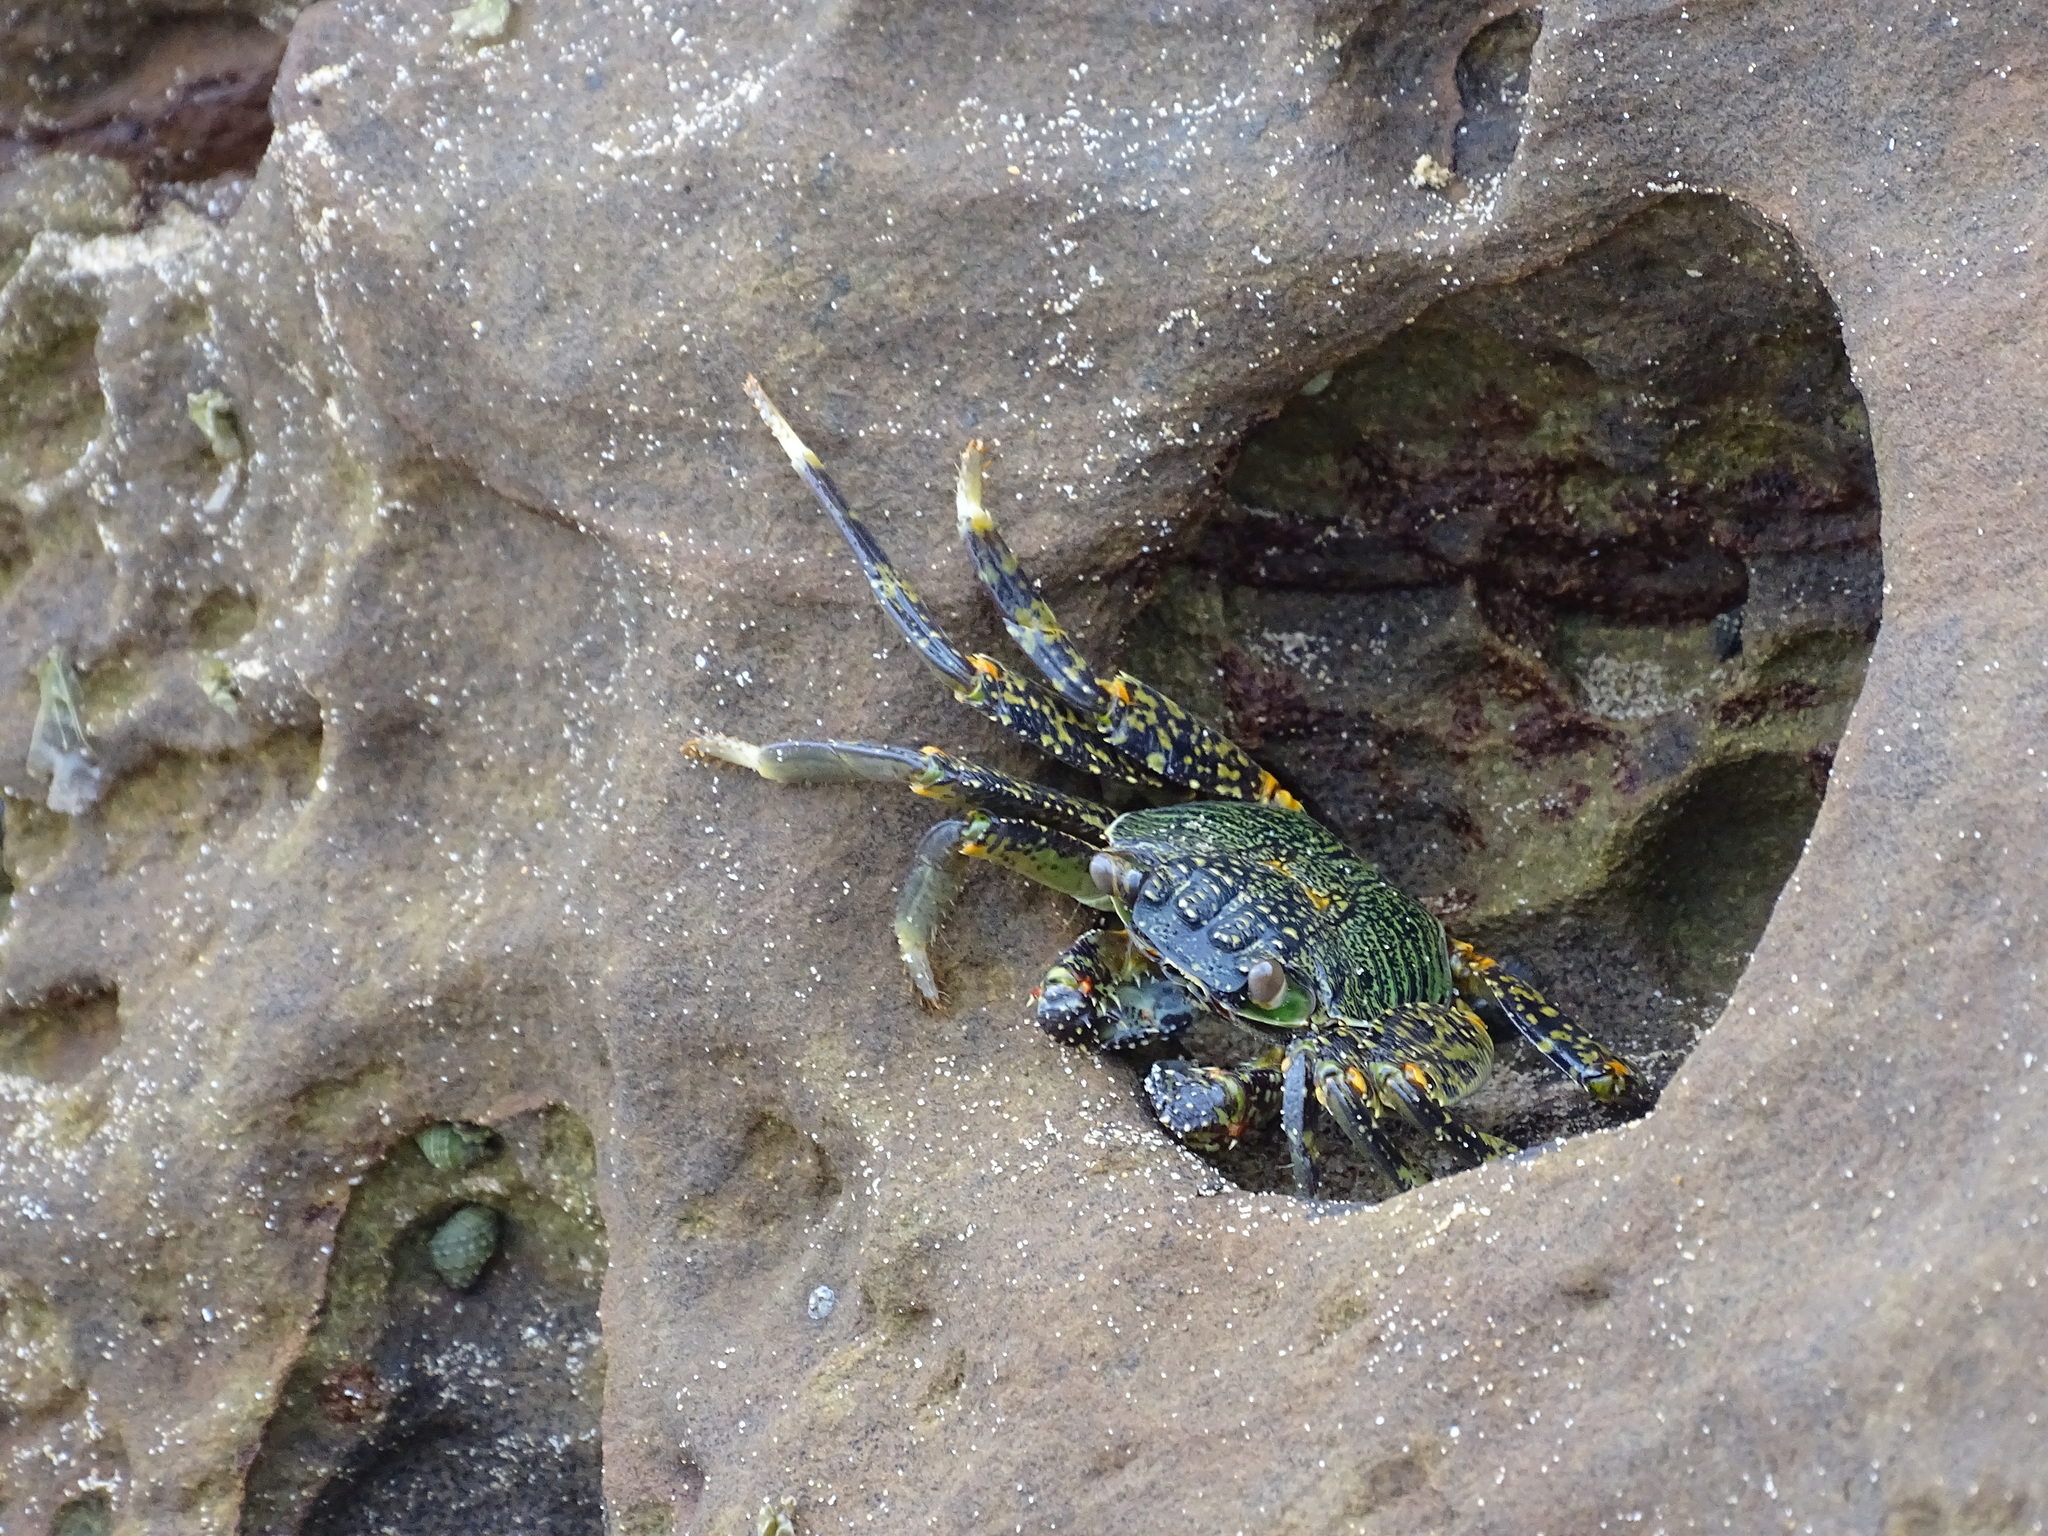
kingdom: Animalia
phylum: Arthropoda
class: Malacostraca
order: Decapoda
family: Grapsidae
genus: Grapsus
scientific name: Grapsus albolineatus
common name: Mottled lightfoot crab
